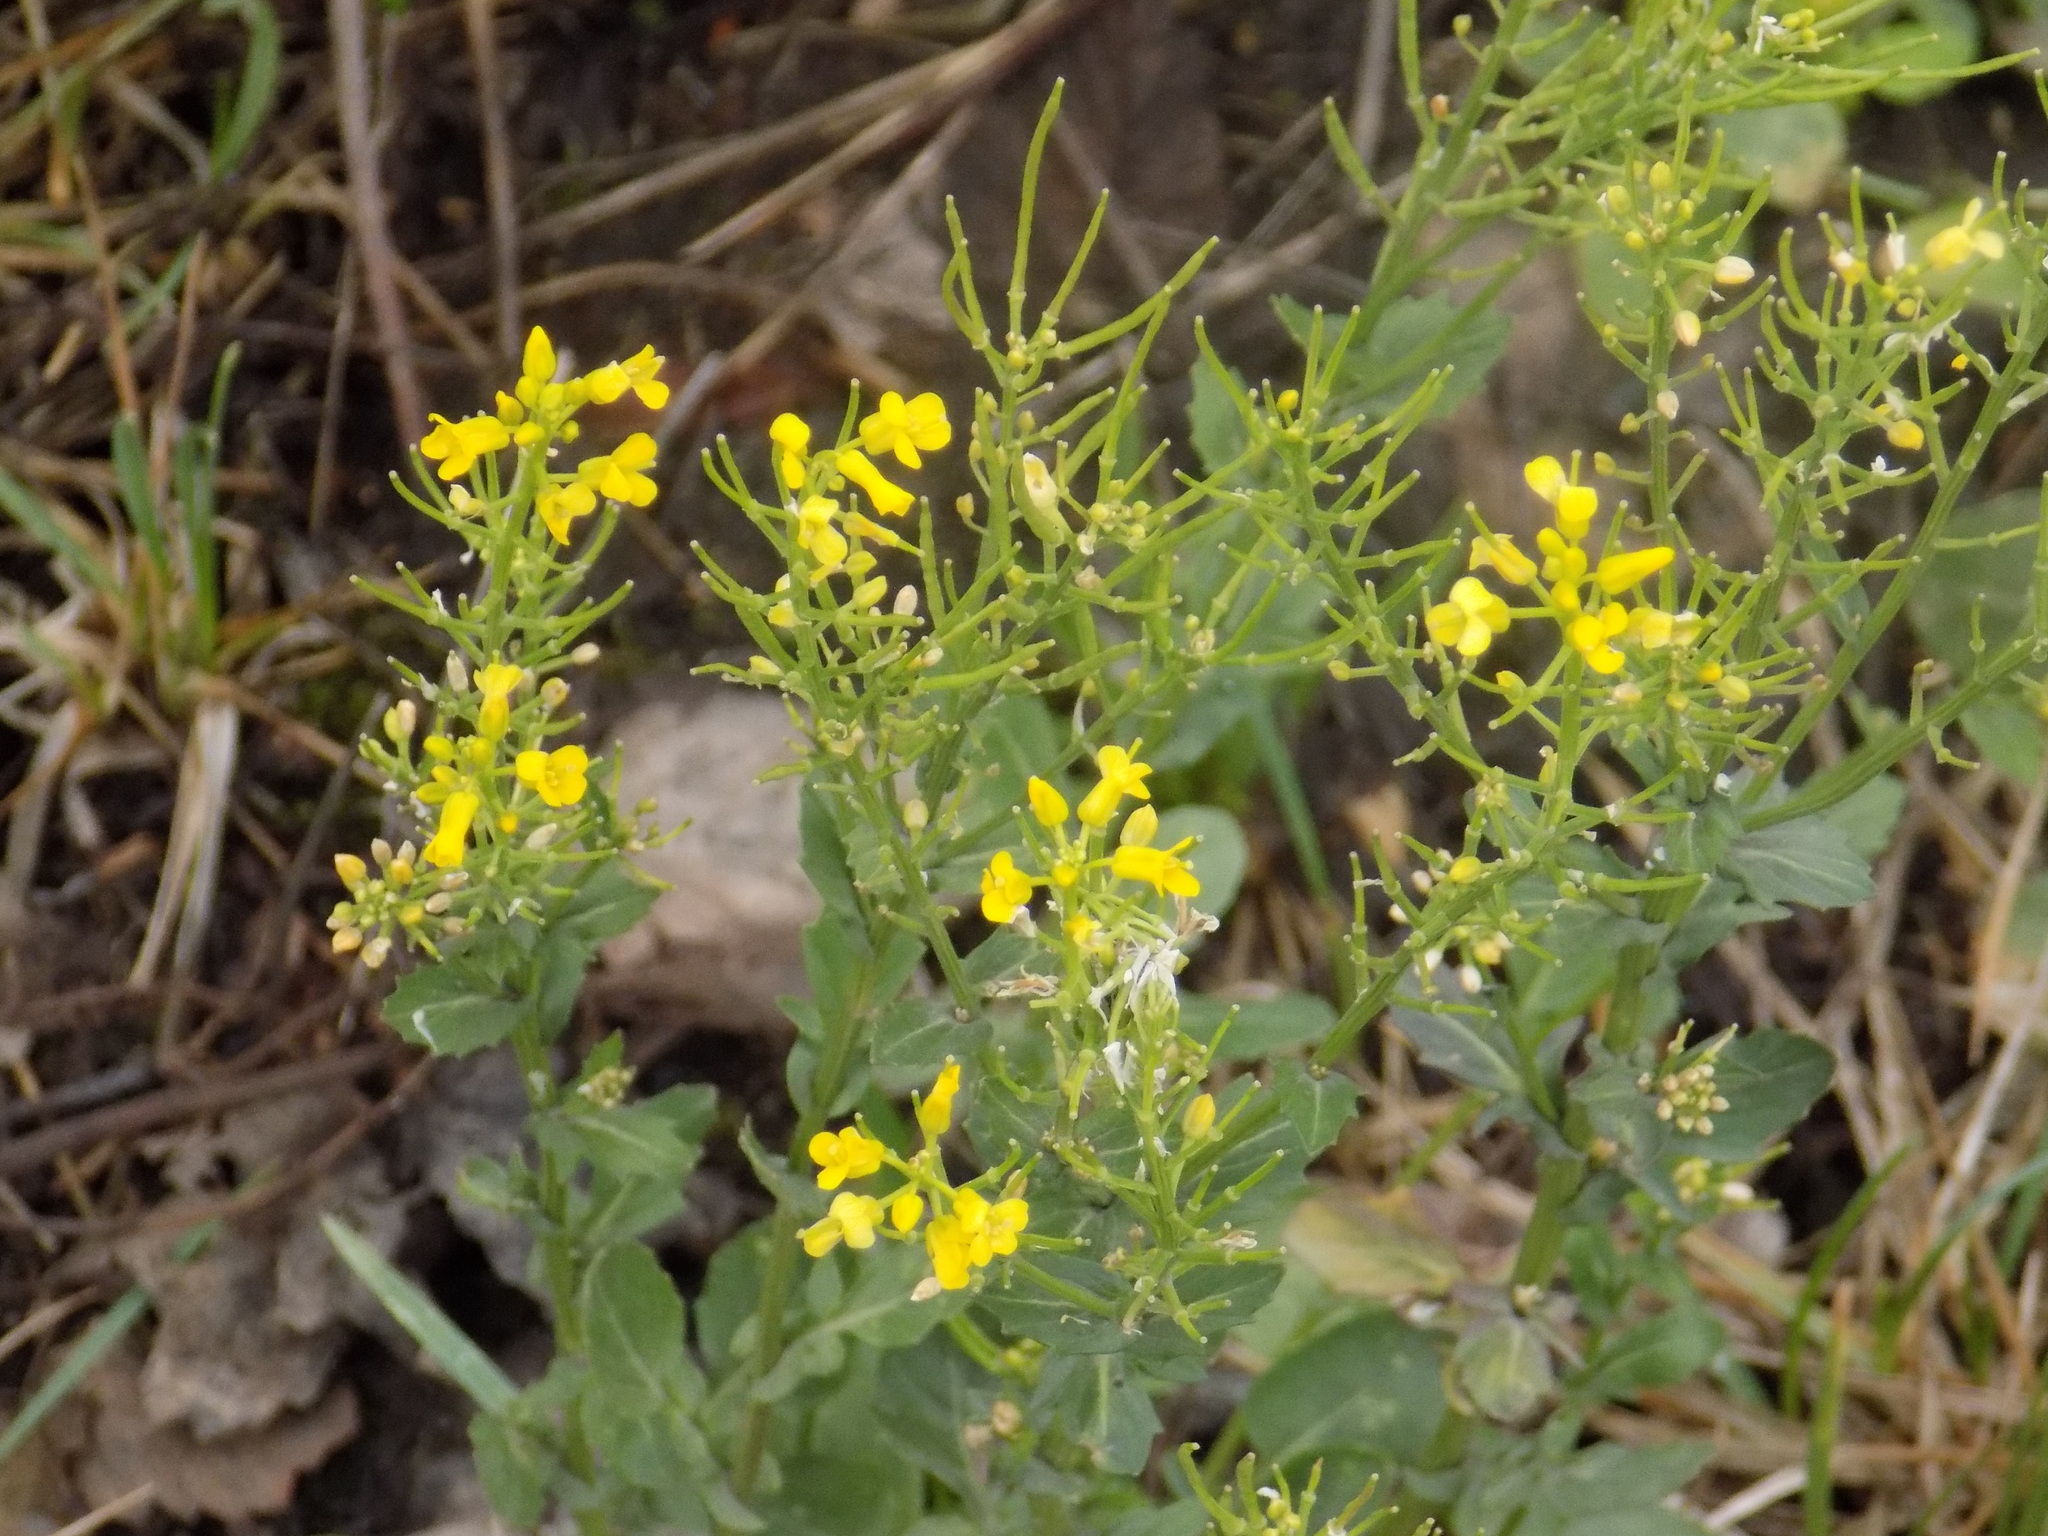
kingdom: Plantae
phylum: Tracheophyta
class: Magnoliopsida
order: Brassicales
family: Brassicaceae
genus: Barbarea
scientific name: Barbarea vulgaris
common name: Cressy-greens
